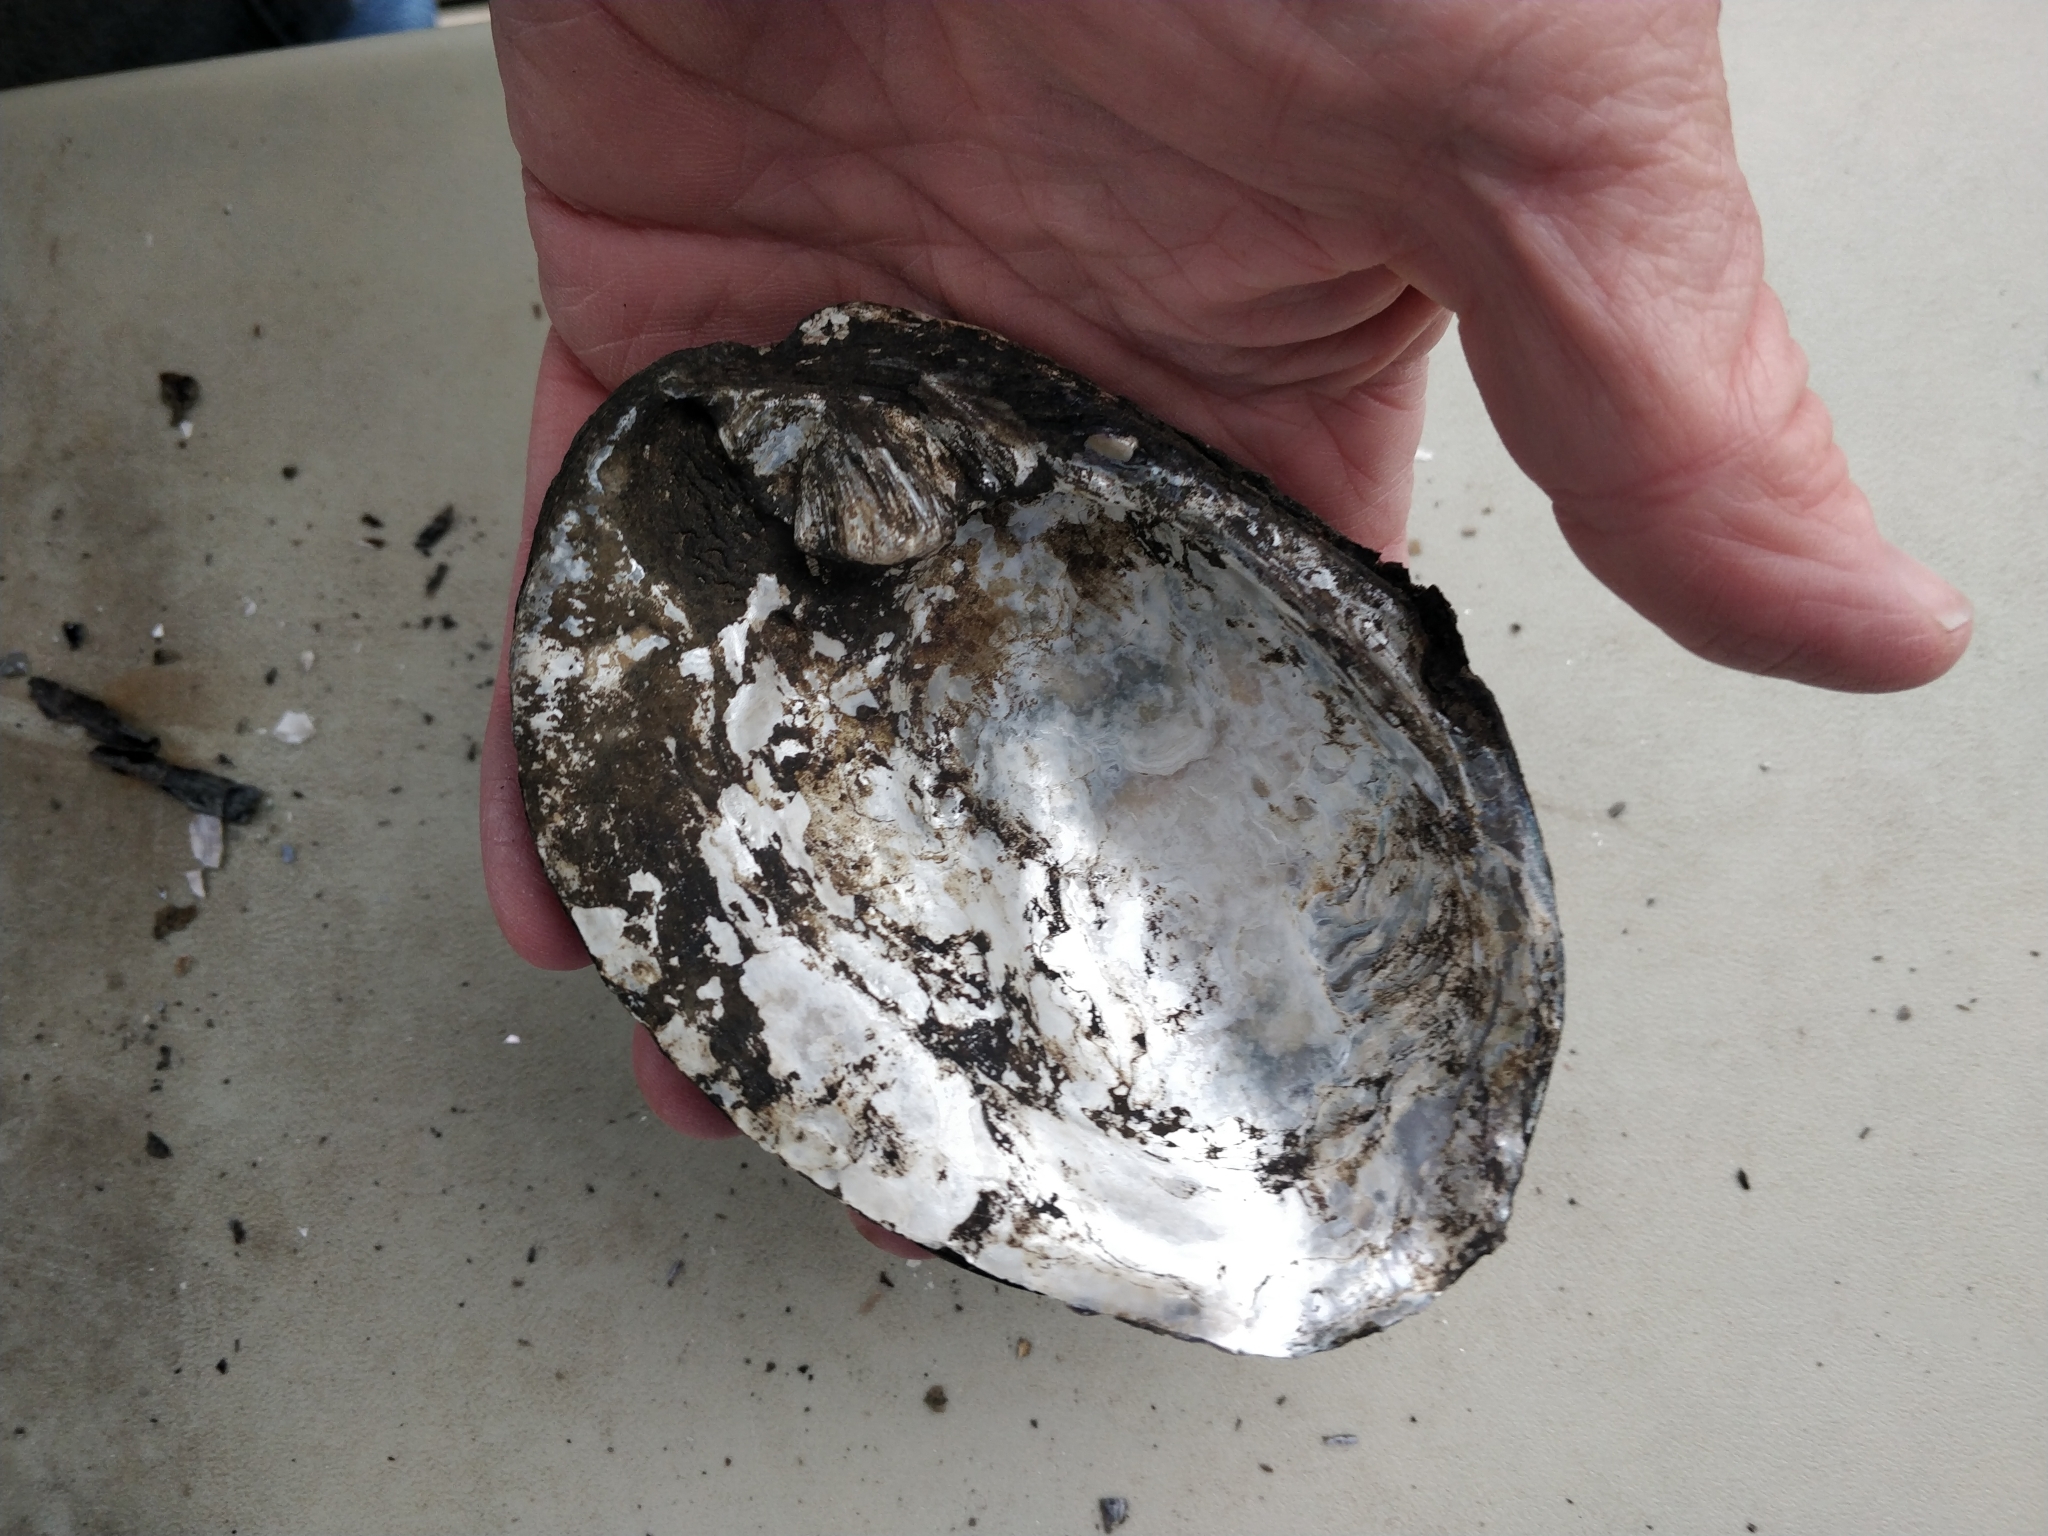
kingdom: Animalia
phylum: Mollusca
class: Bivalvia
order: Unionida
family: Unionidae
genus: Amblema
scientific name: Amblema plicata
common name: Threeridge
